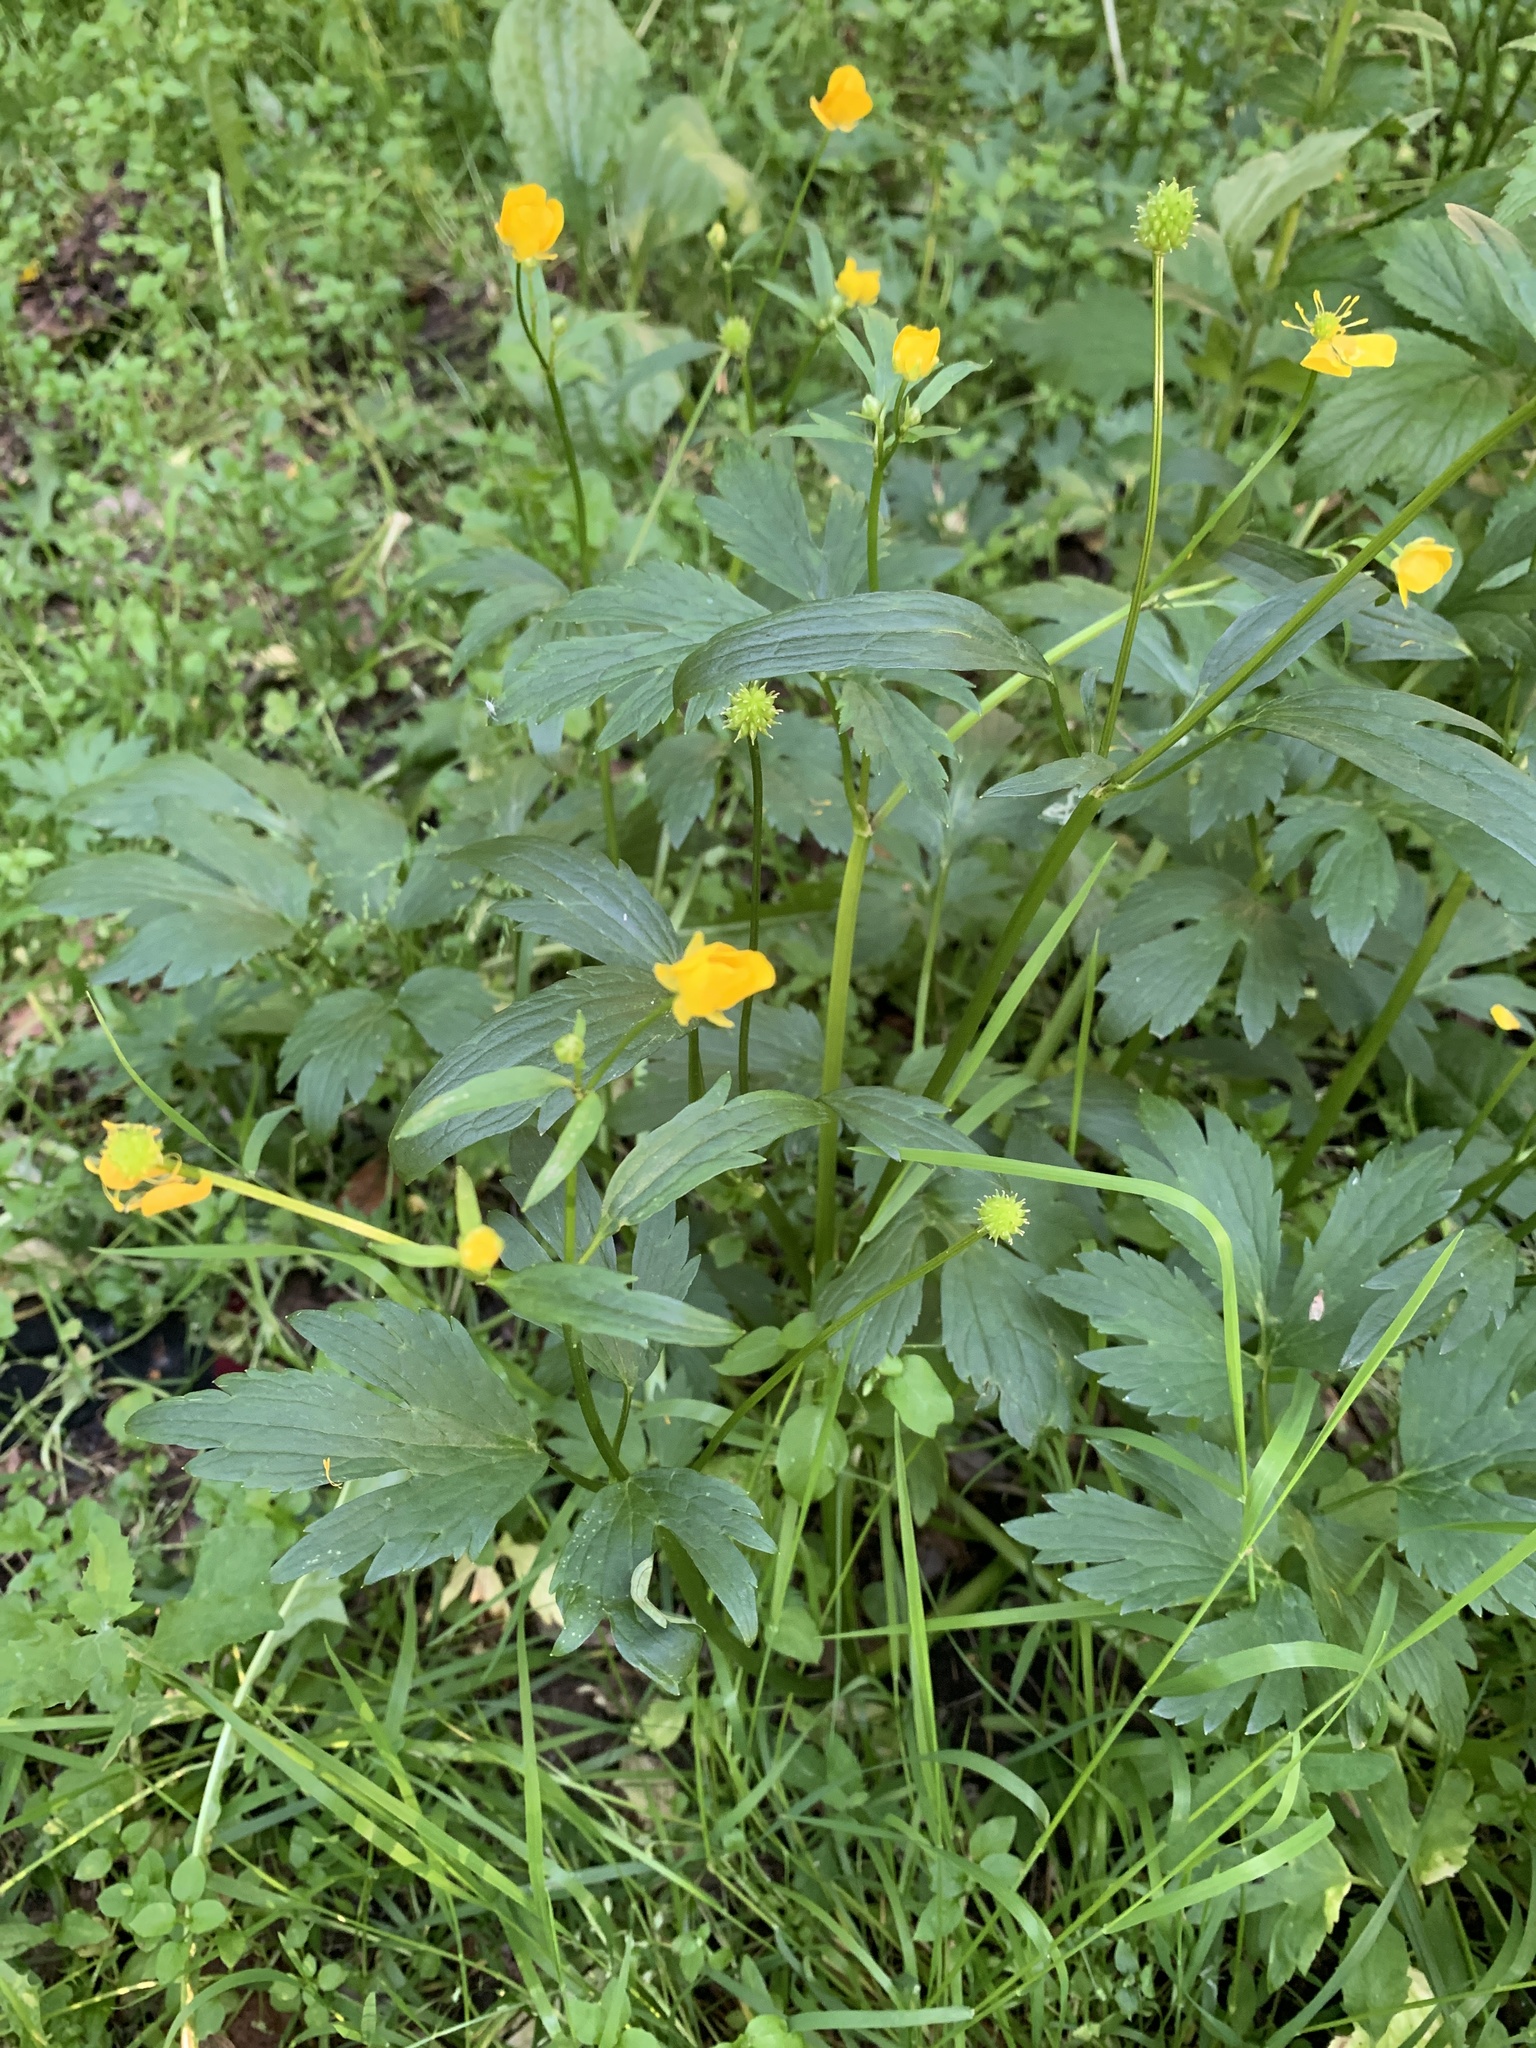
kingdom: Plantae
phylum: Tracheophyta
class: Magnoliopsida
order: Ranunculales
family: Ranunculaceae
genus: Ranunculus
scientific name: Ranunculus repens
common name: Creeping buttercup
